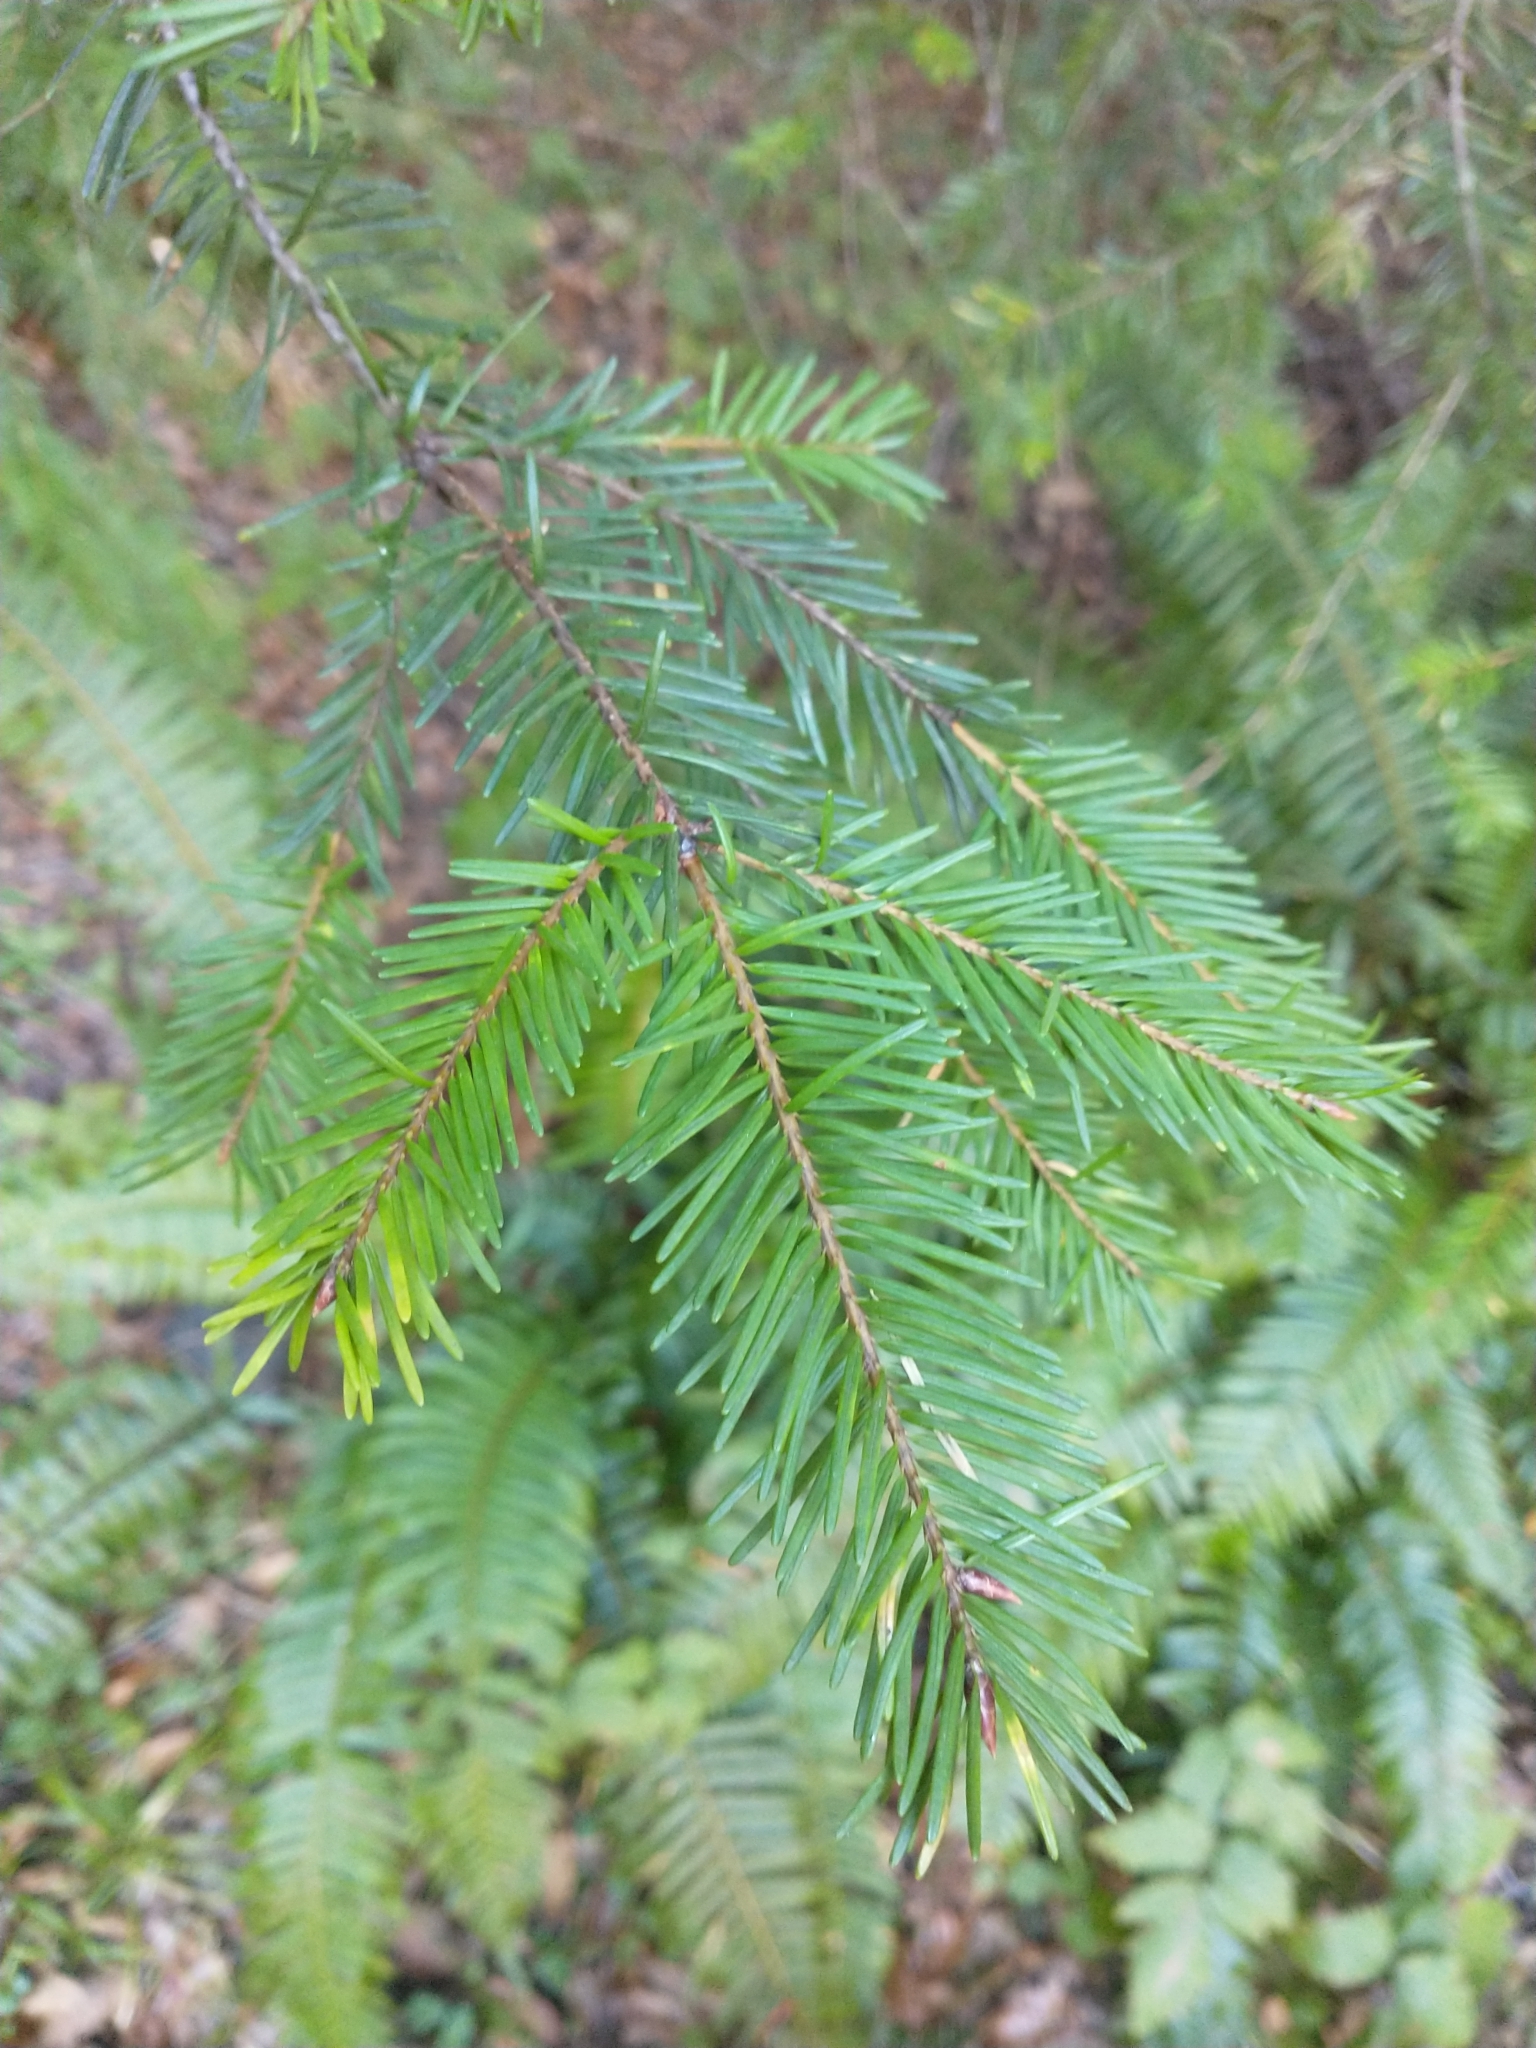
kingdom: Plantae
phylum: Tracheophyta
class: Pinopsida
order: Pinales
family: Pinaceae
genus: Pseudotsuga
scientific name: Pseudotsuga menziesii
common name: Douglas fir
